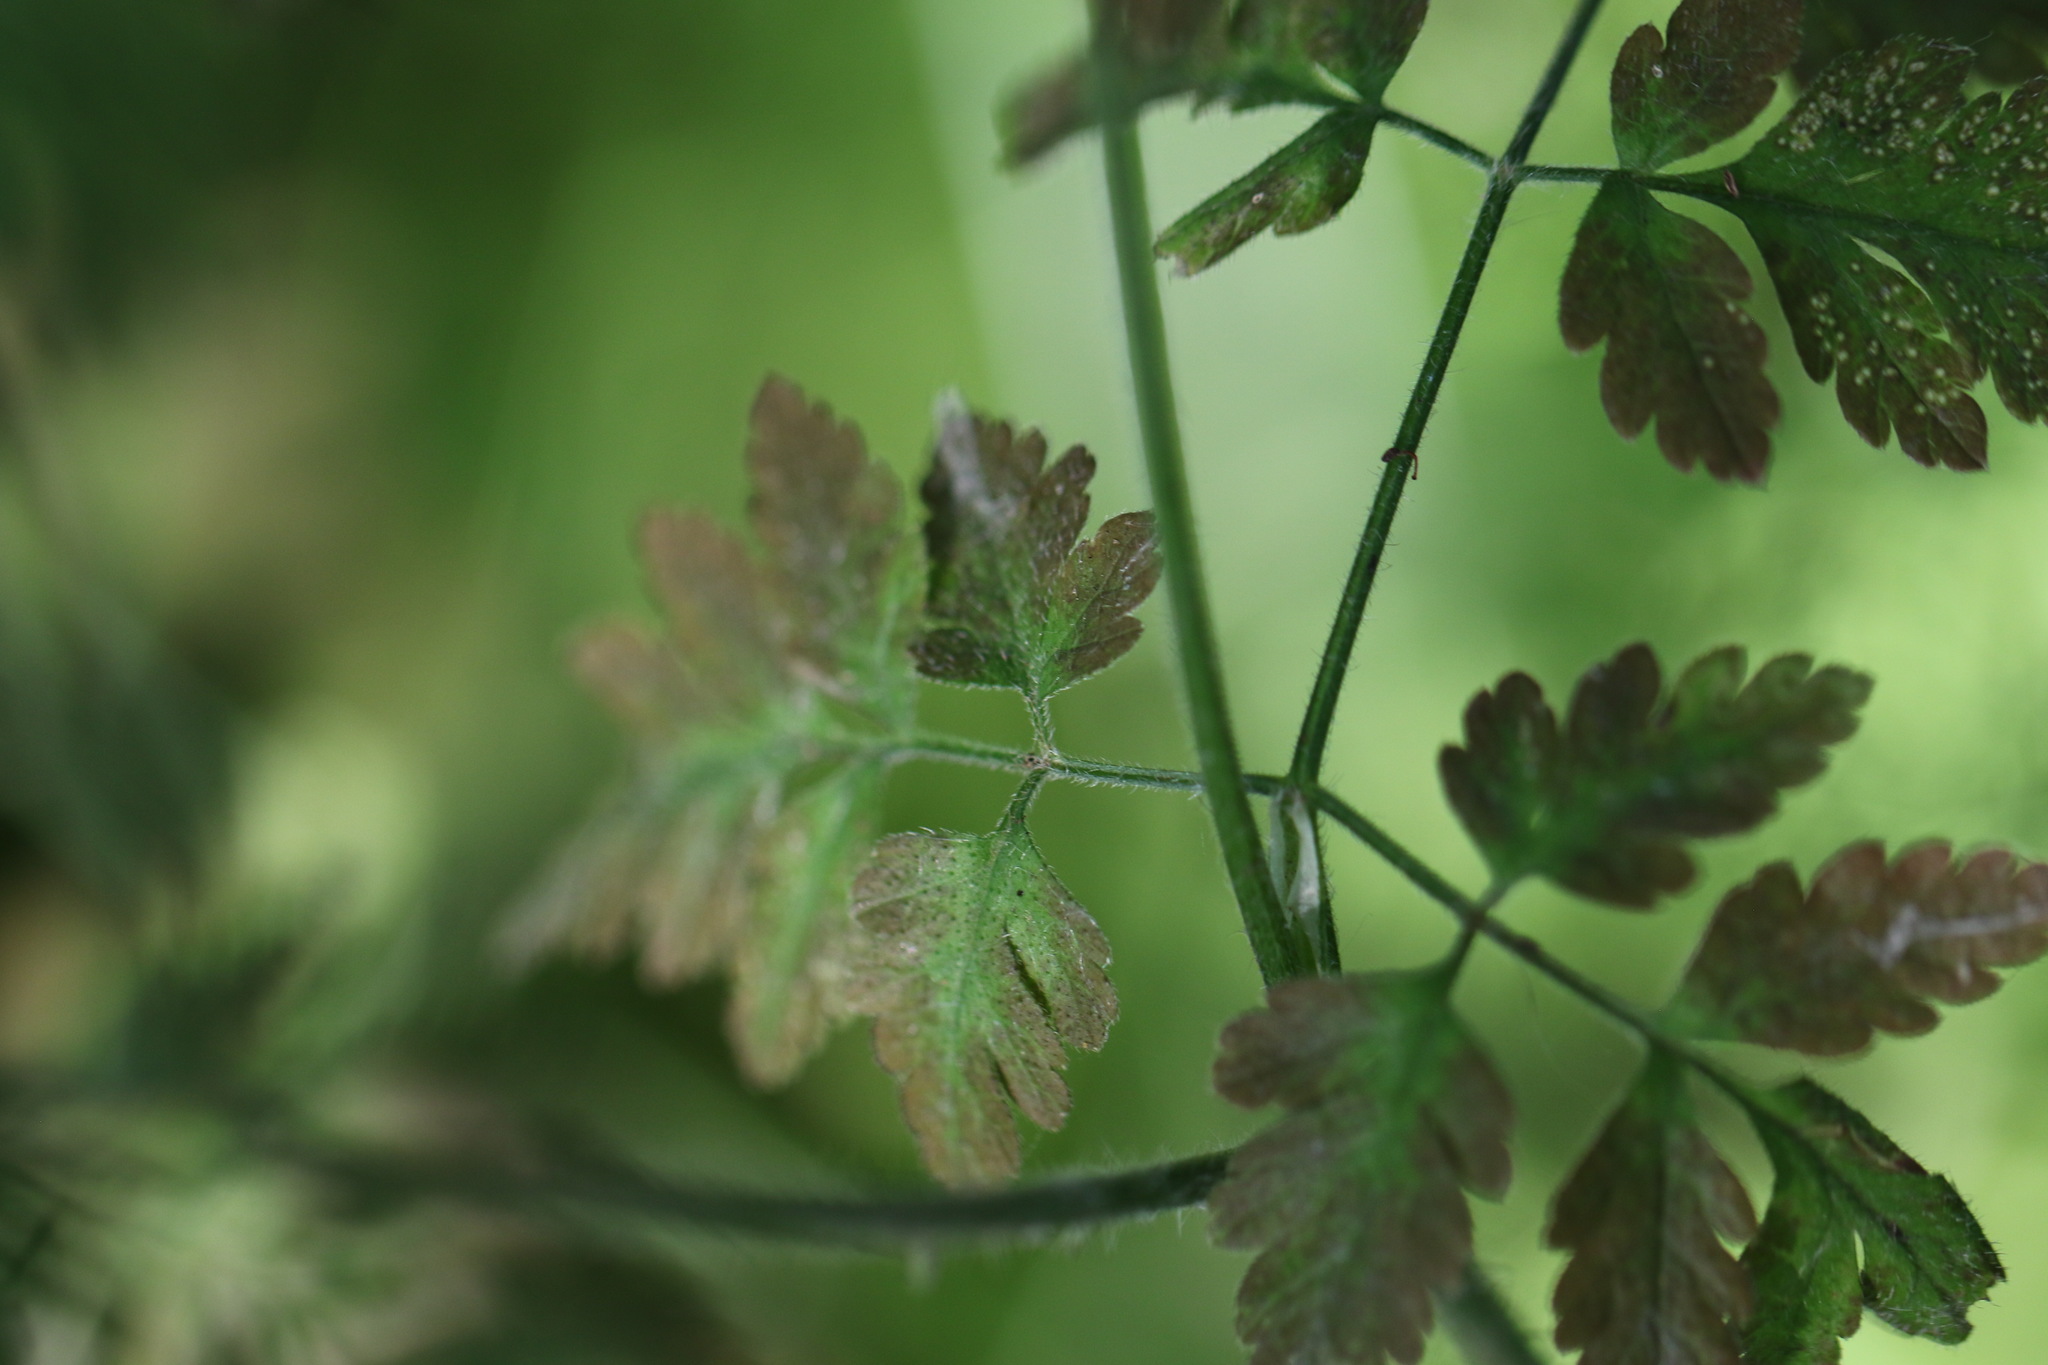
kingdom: Plantae
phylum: Tracheophyta
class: Magnoliopsida
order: Apiales
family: Apiaceae
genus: Chaerophyllum
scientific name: Chaerophyllum temulum
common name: Rough chervil
